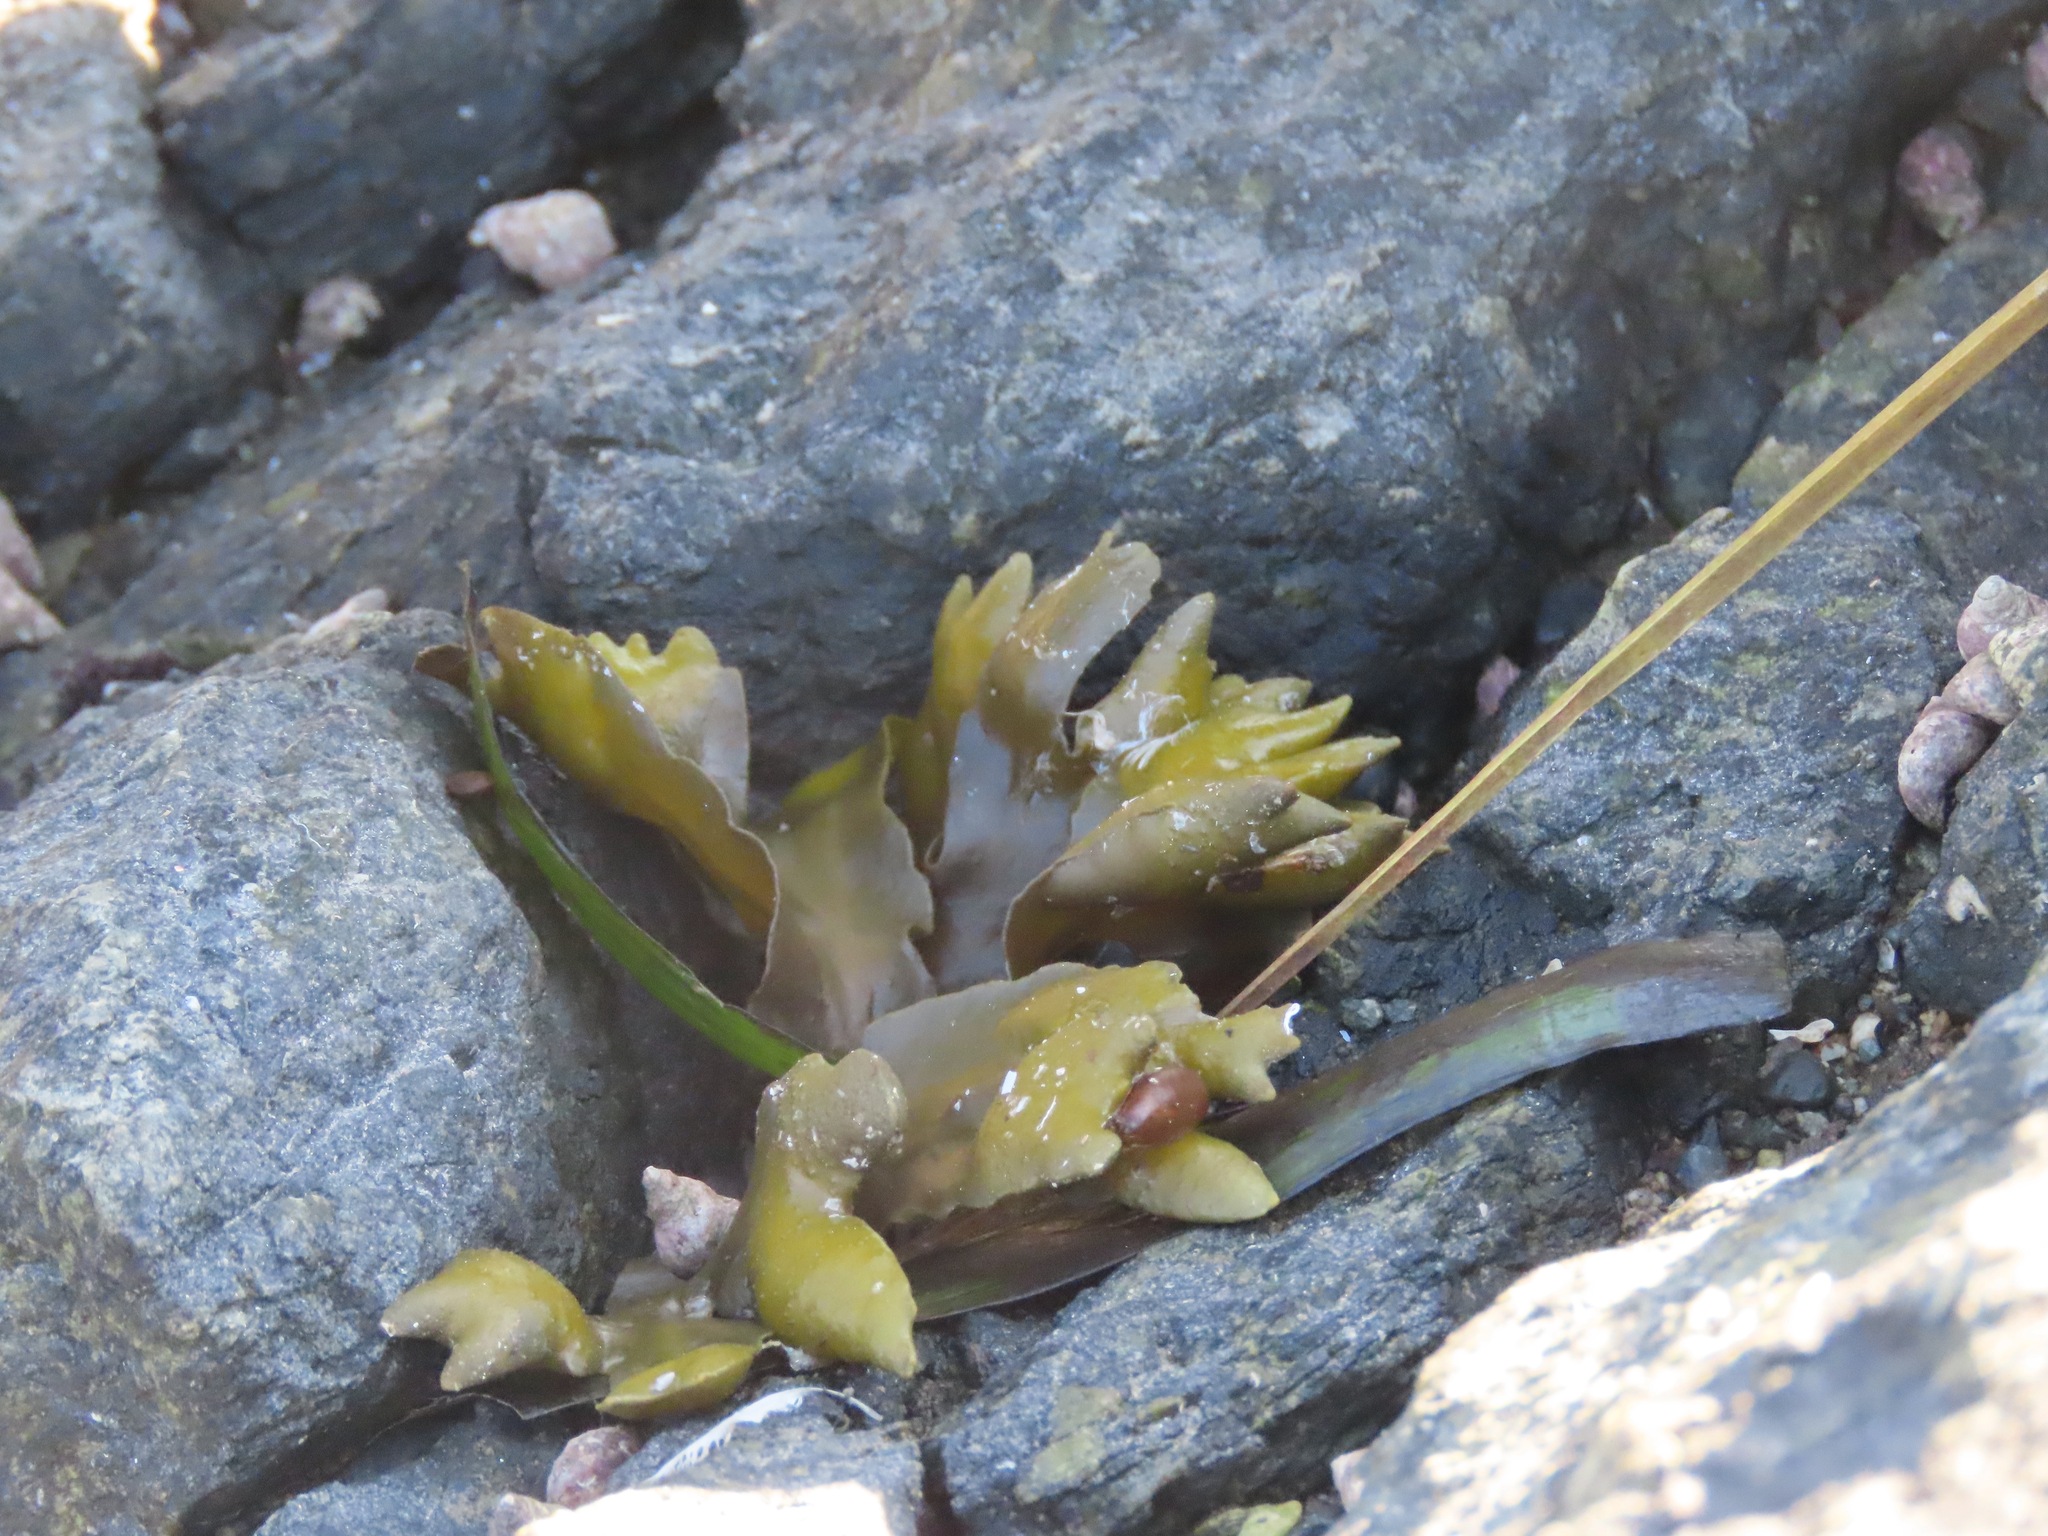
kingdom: Chromista
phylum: Ochrophyta
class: Phaeophyceae
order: Fucales
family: Fucaceae
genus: Fucus
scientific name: Fucus distichus
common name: Rockweed
